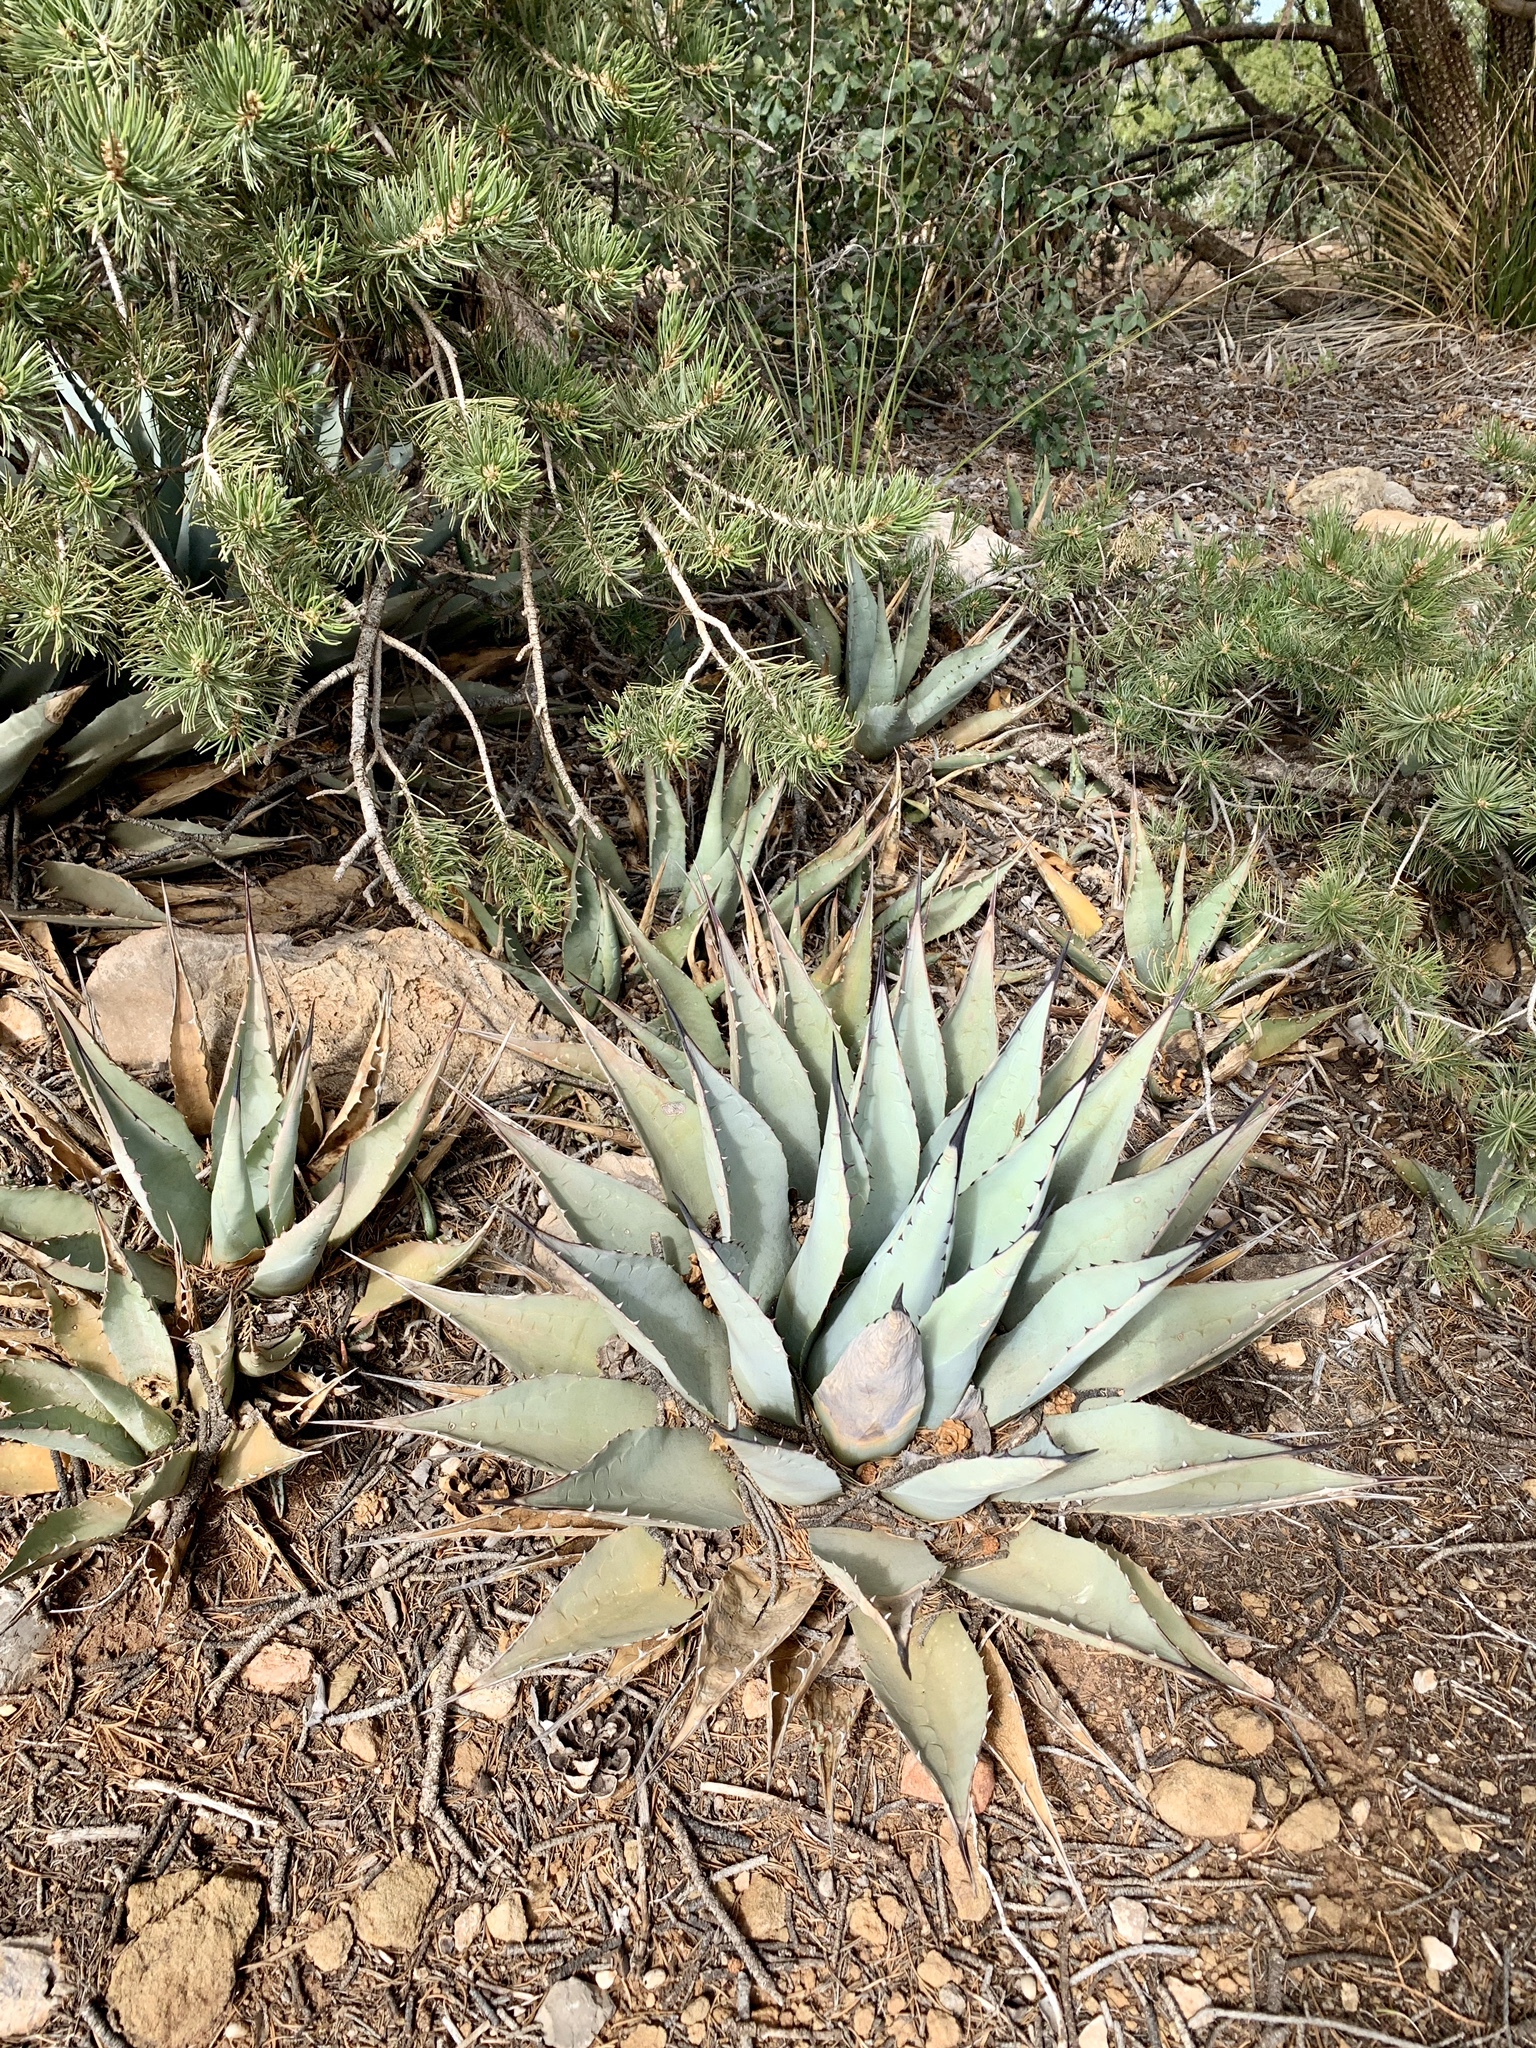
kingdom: Plantae
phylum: Tracheophyta
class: Liliopsida
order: Asparagales
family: Asparagaceae
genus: Agave
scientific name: Agave parryi
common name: Parry's agave
